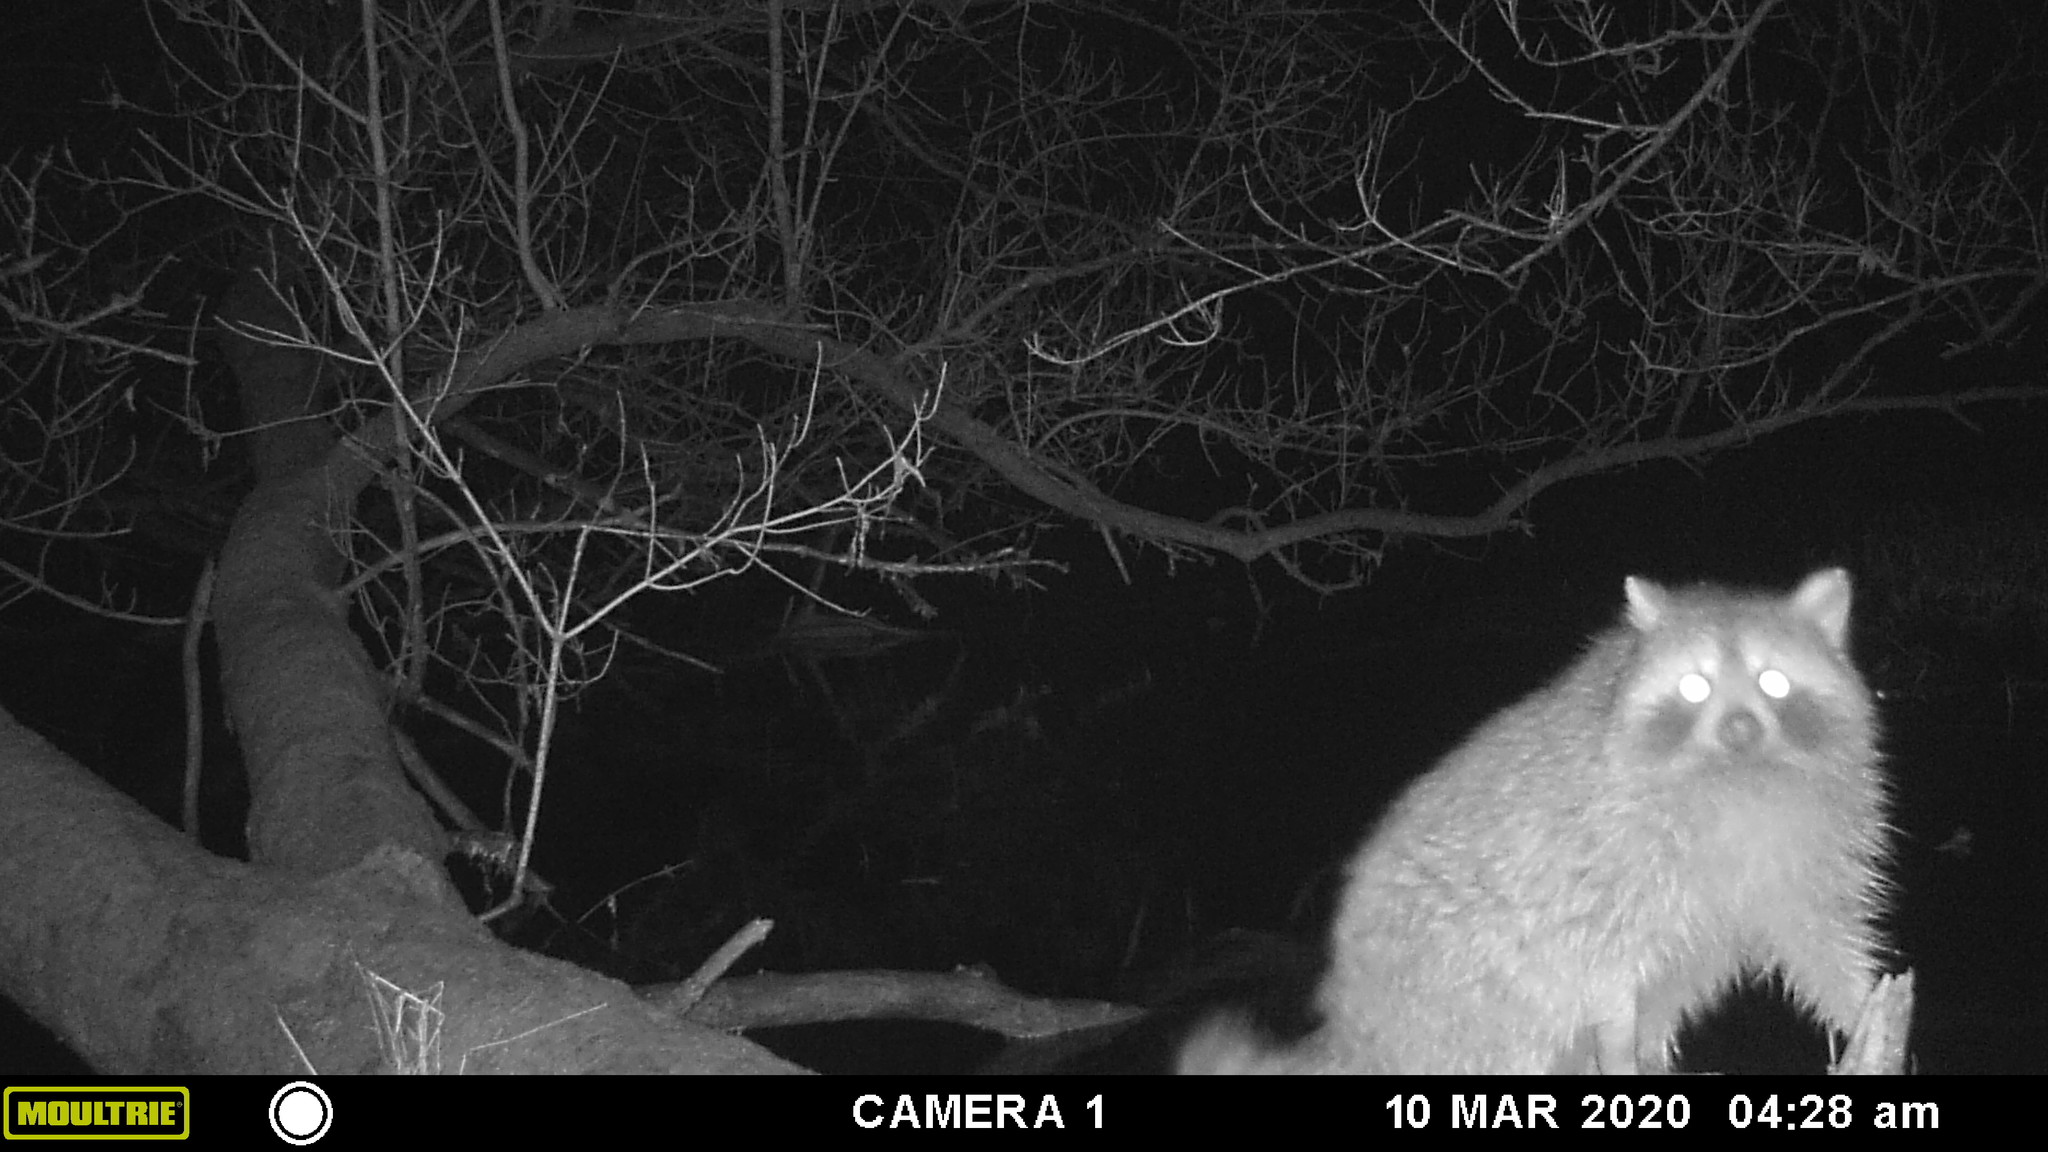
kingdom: Animalia
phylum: Chordata
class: Mammalia
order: Carnivora
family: Procyonidae
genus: Procyon
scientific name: Procyon lotor
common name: Raccoon
